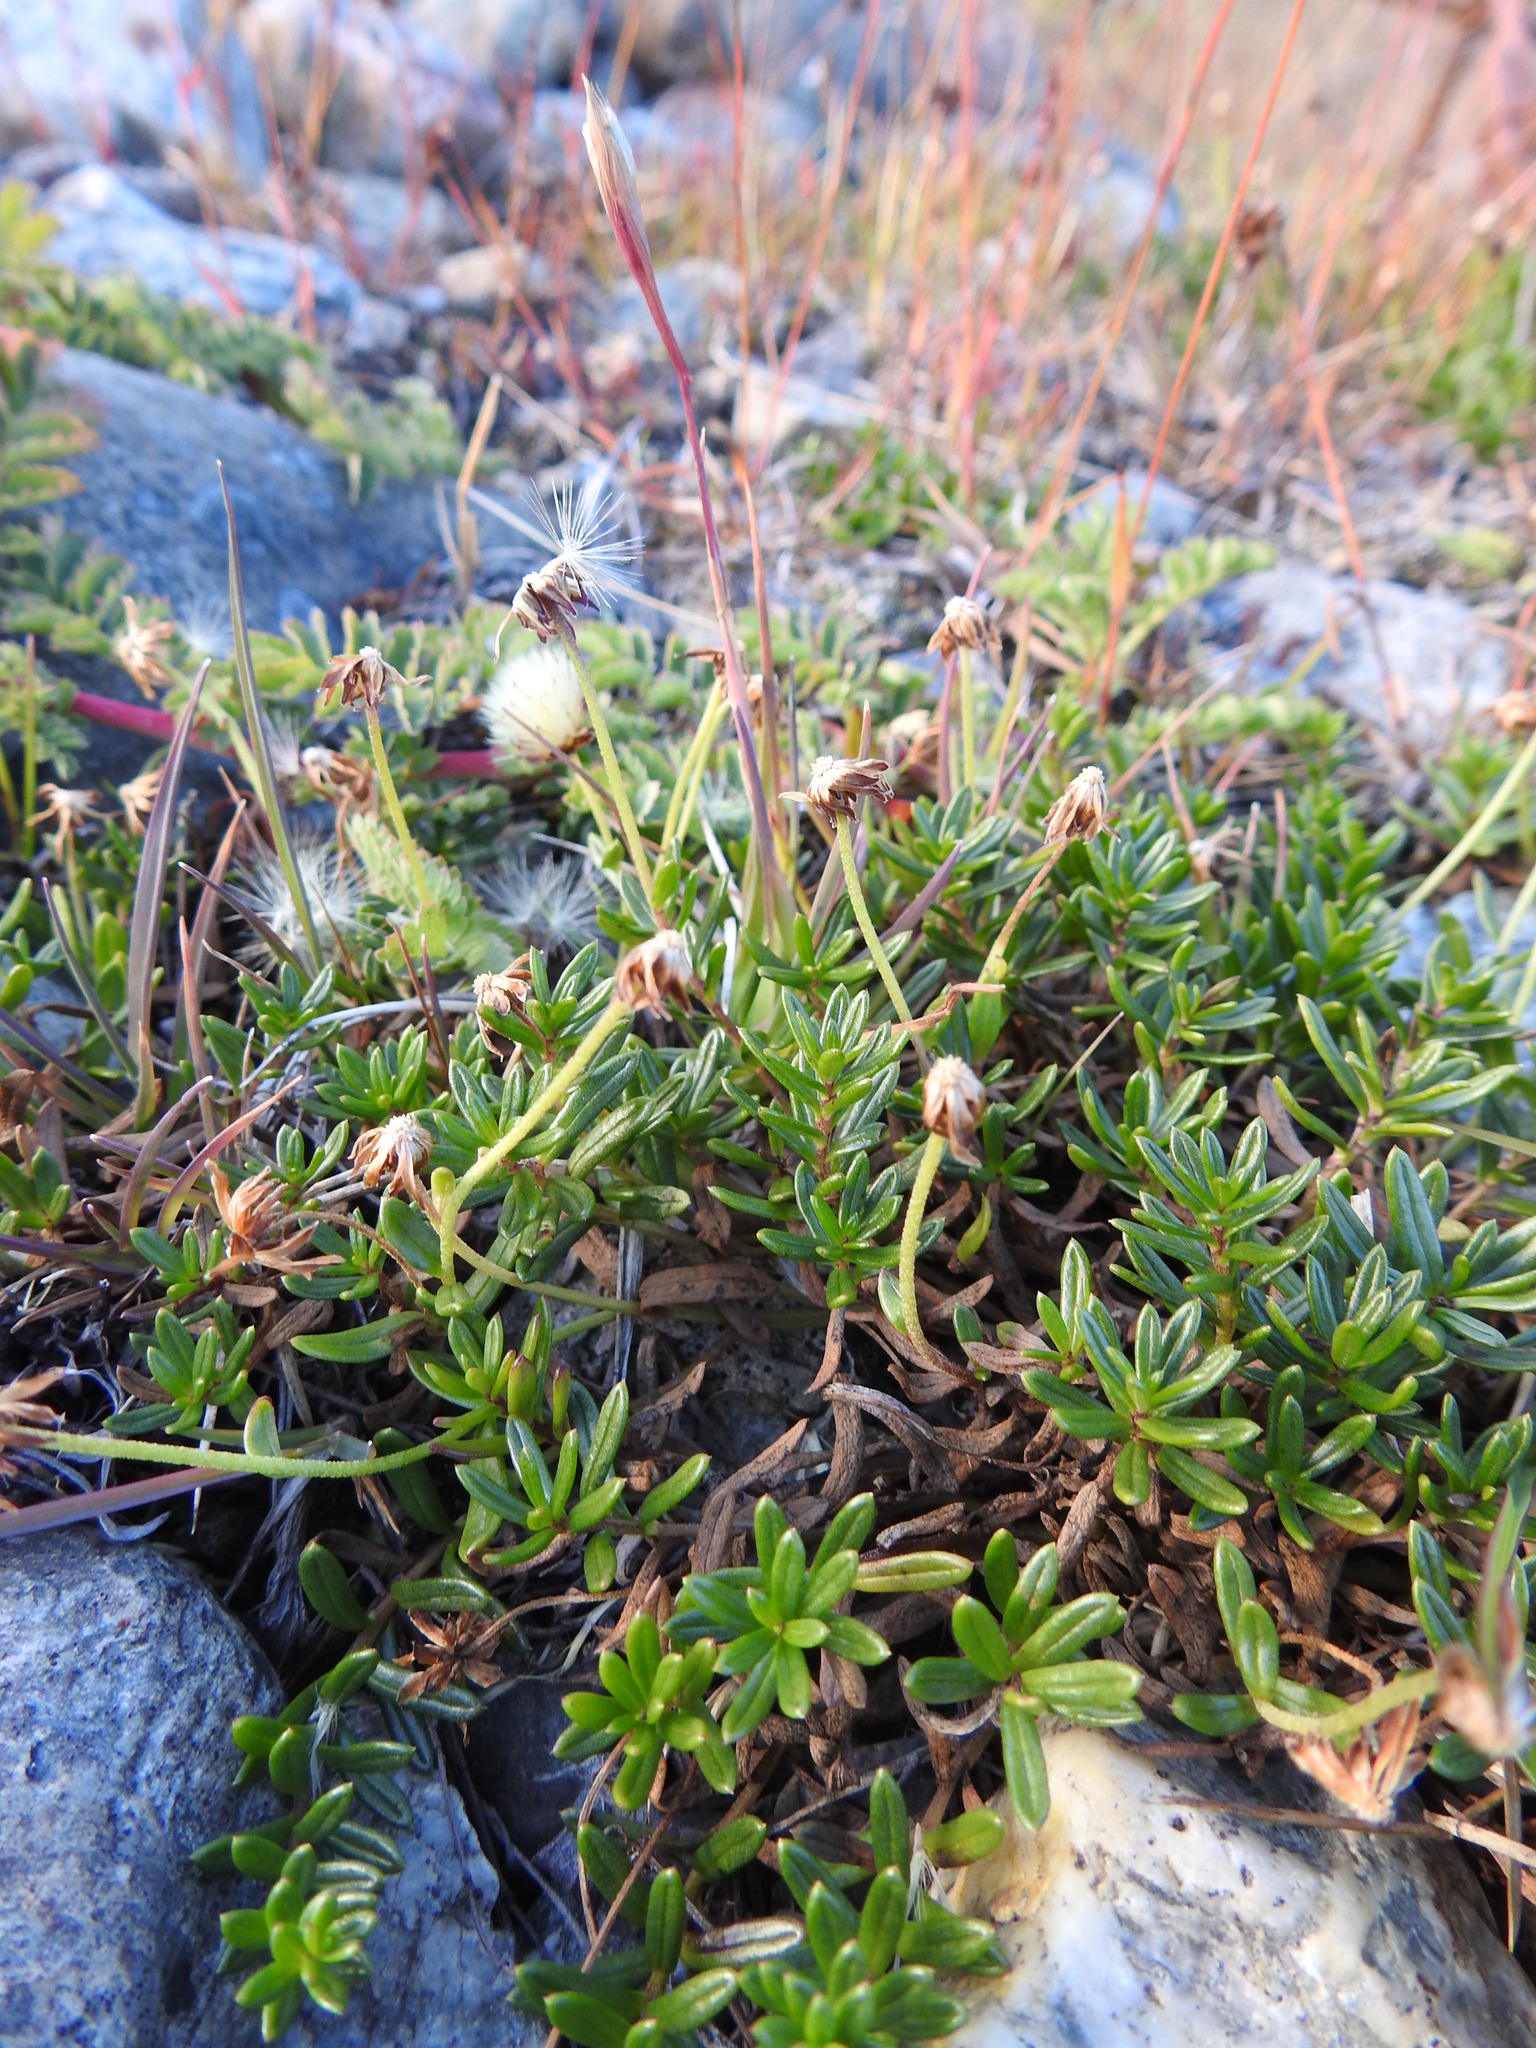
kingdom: Plantae
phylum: Tracheophyta
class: Magnoliopsida
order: Asterales
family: Asteraceae
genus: Baccharis
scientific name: Baccharis nivalis
